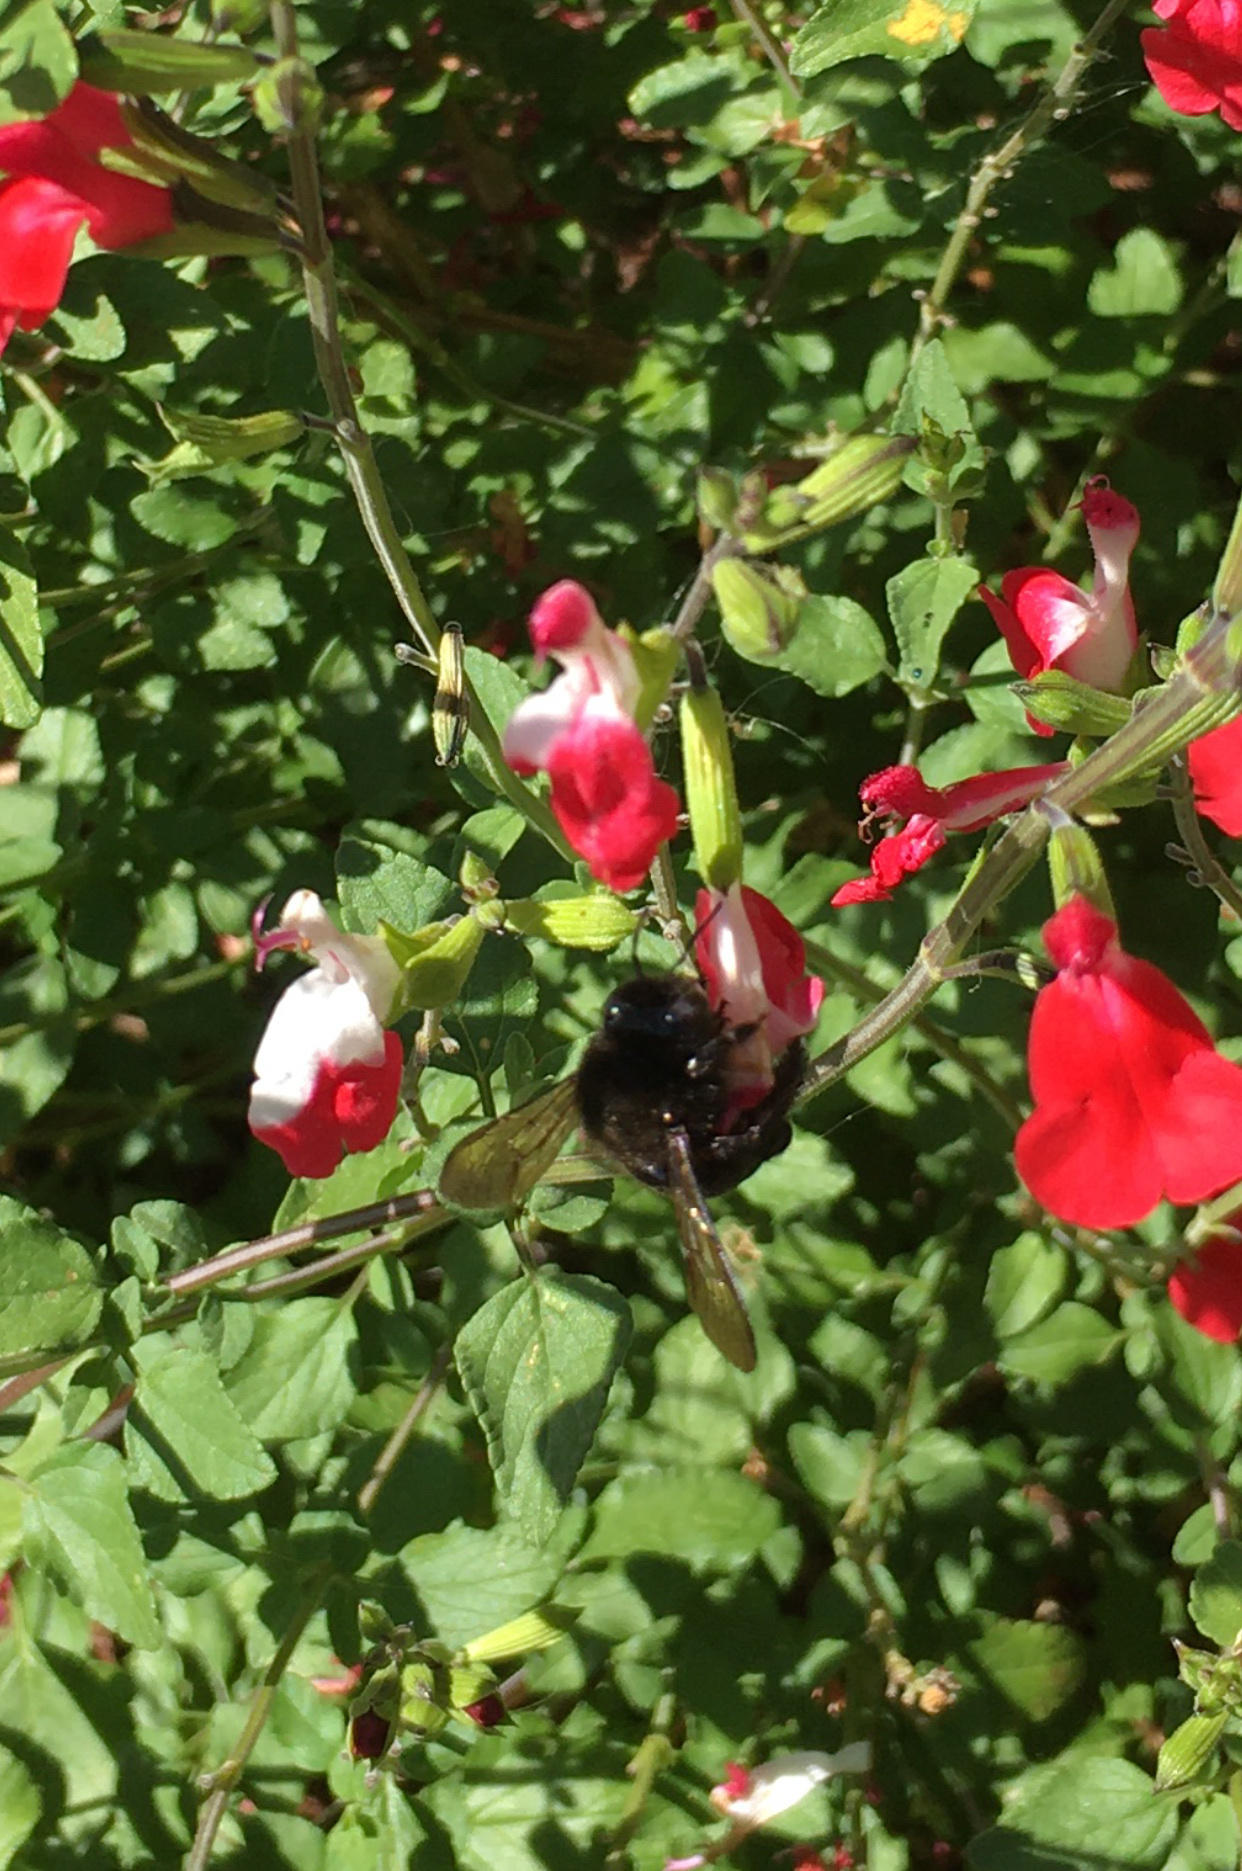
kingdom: Animalia
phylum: Arthropoda
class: Insecta
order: Hymenoptera
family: Apidae
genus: Xylocopa
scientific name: Xylocopa tabaniformis
